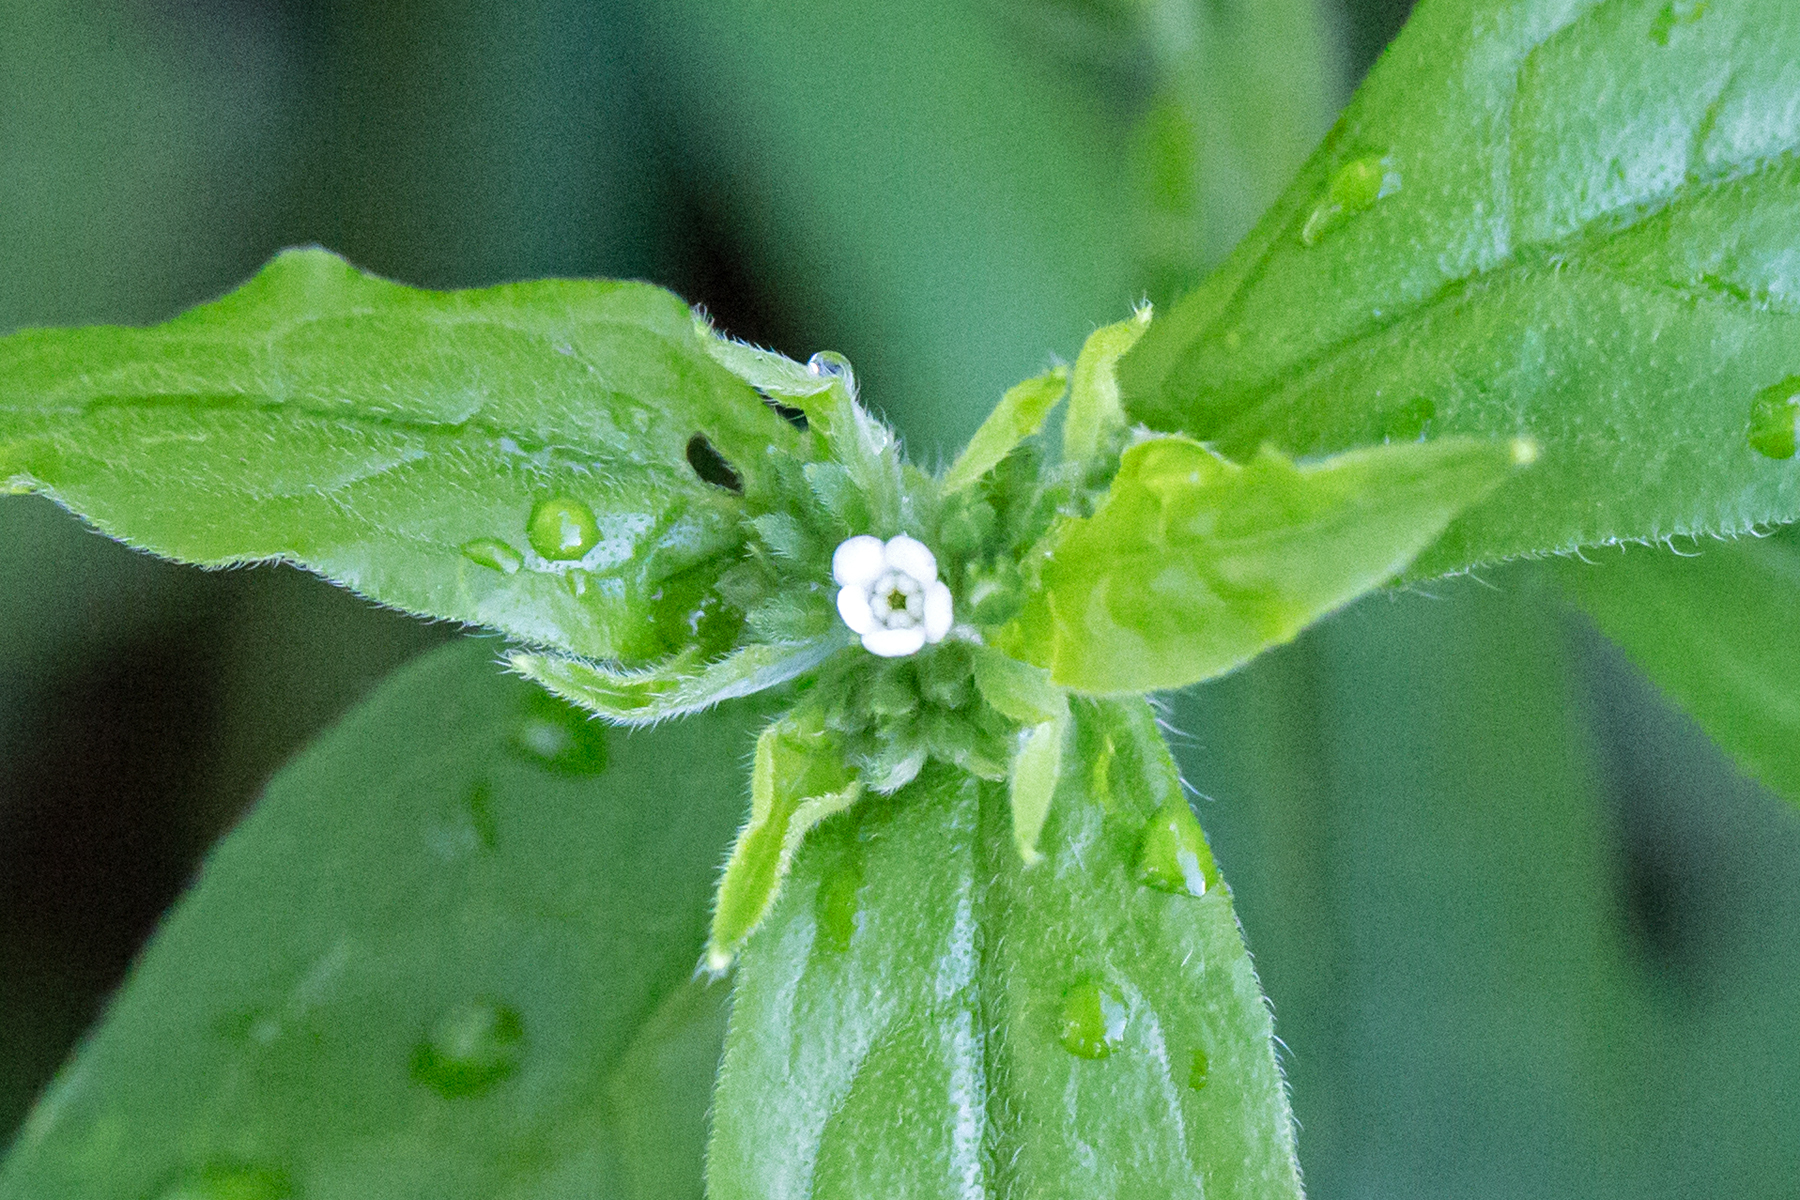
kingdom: Plantae
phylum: Tracheophyta
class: Magnoliopsida
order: Boraginales
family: Boraginaceae
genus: Hackelia
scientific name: Hackelia virginiana
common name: Beggar's-lice
